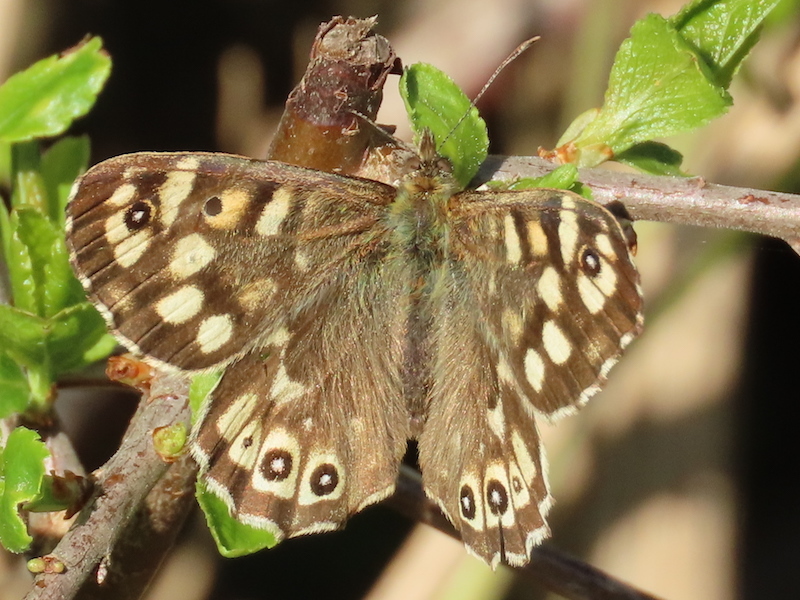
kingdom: Animalia
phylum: Arthropoda
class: Insecta
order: Lepidoptera
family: Nymphalidae
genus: Pararge
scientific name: Pararge aegeria
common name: Speckled wood
